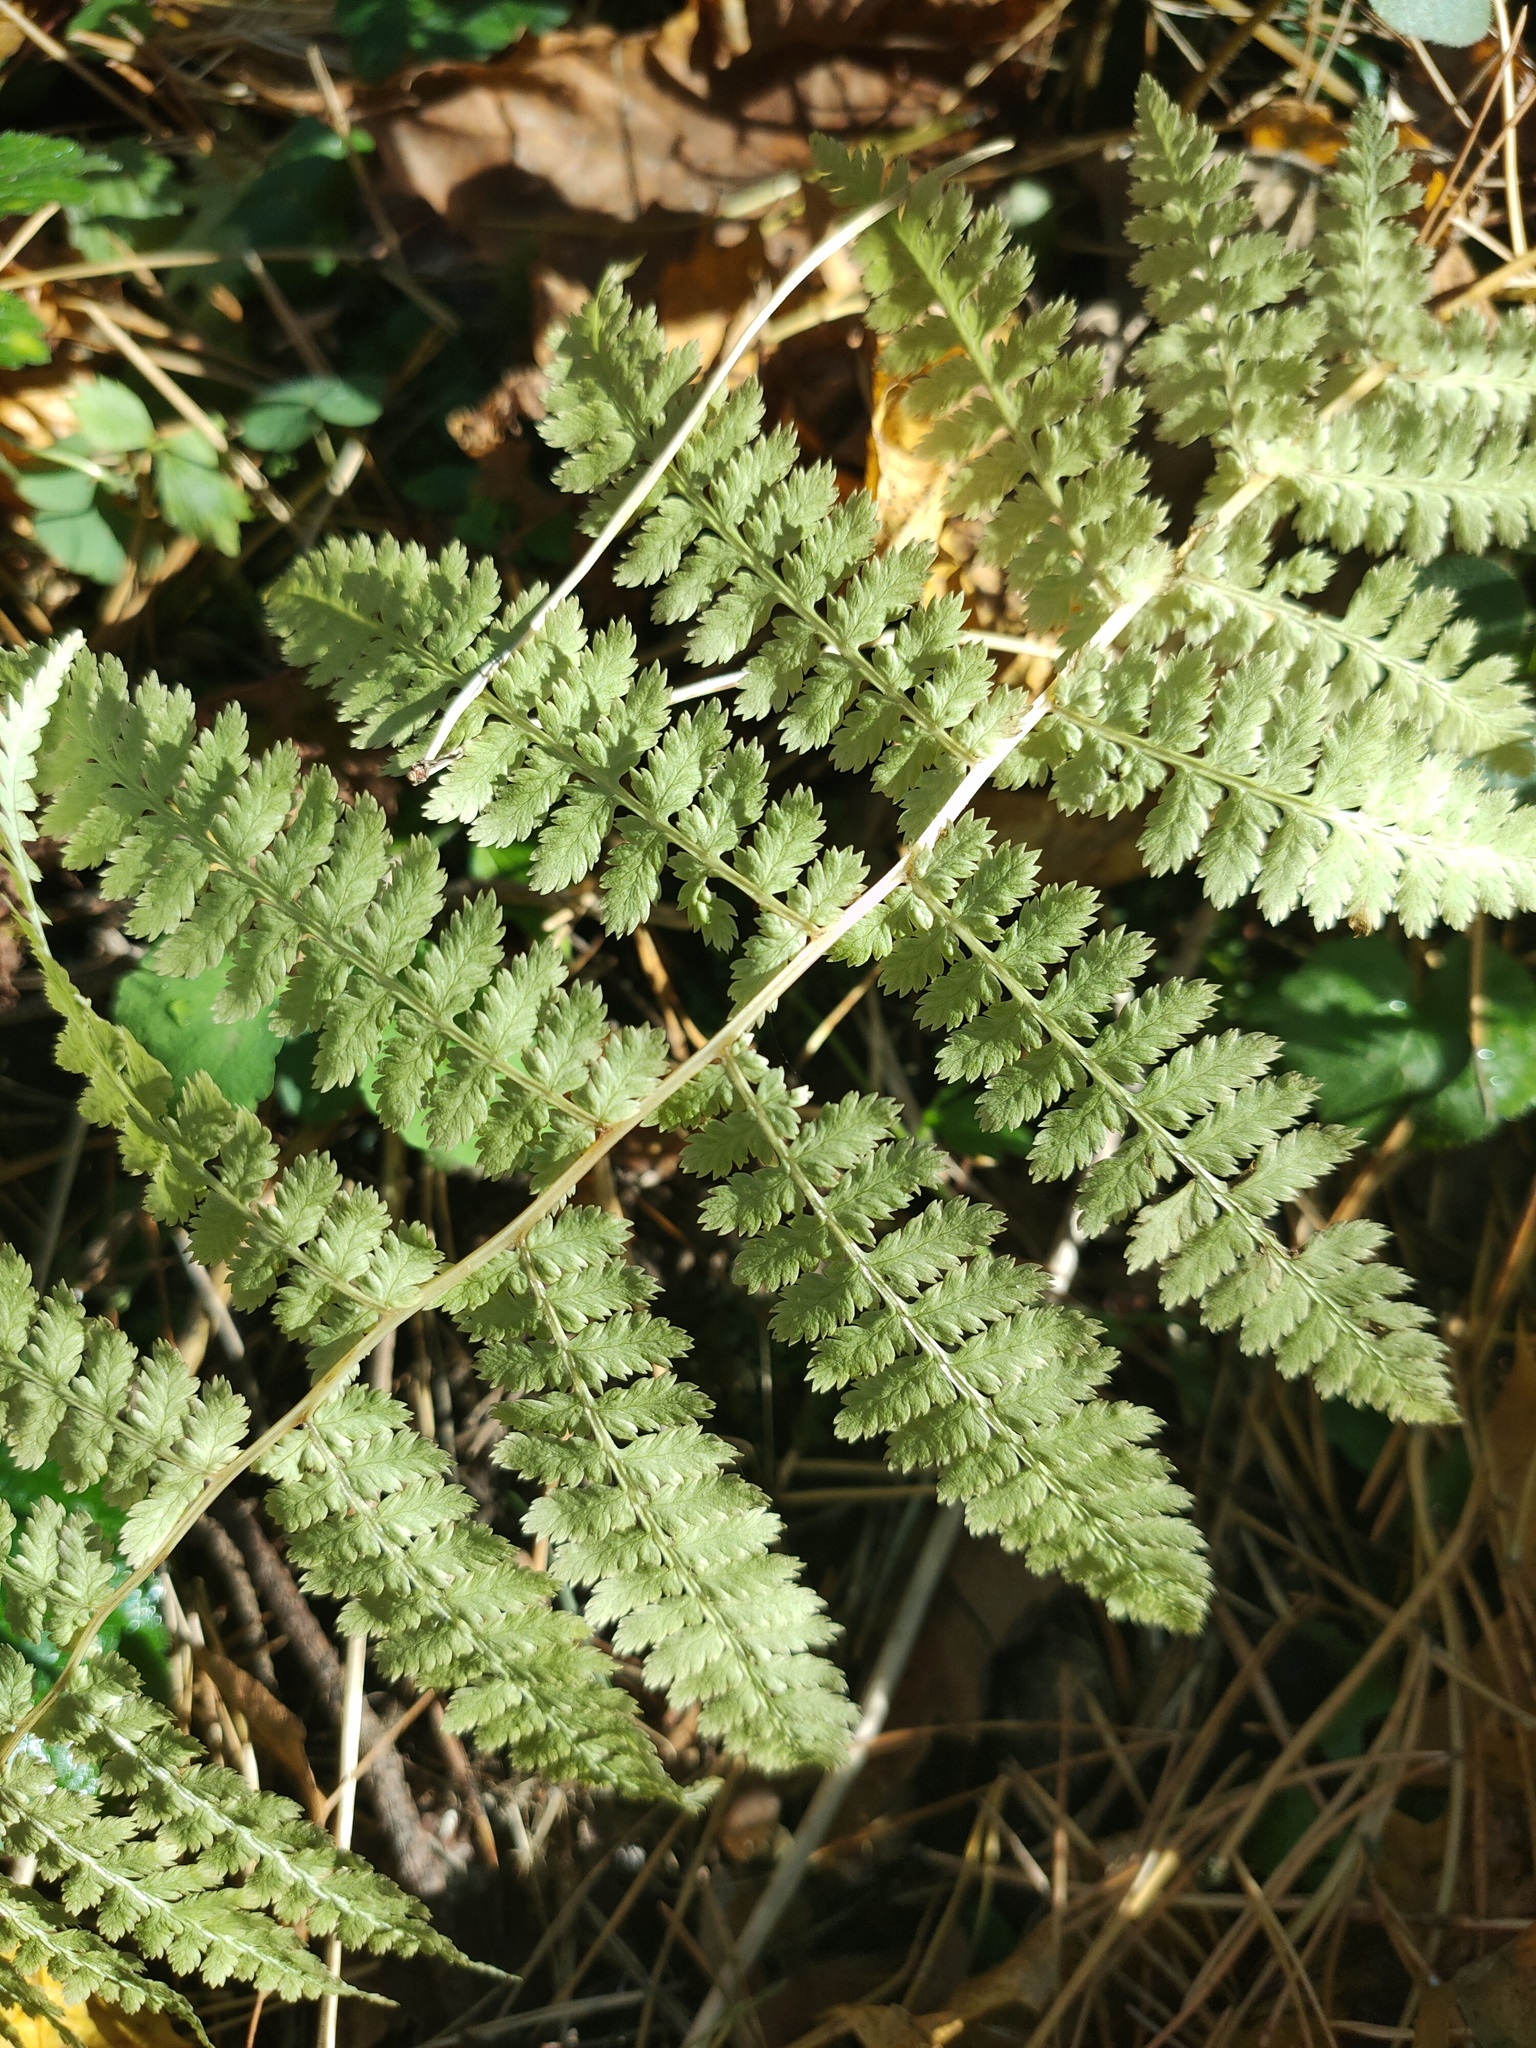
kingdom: Plantae
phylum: Tracheophyta
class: Polypodiopsida
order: Polypodiales
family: Athyriaceae
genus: Athyrium
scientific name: Athyrium filix-femina
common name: Lady fern
